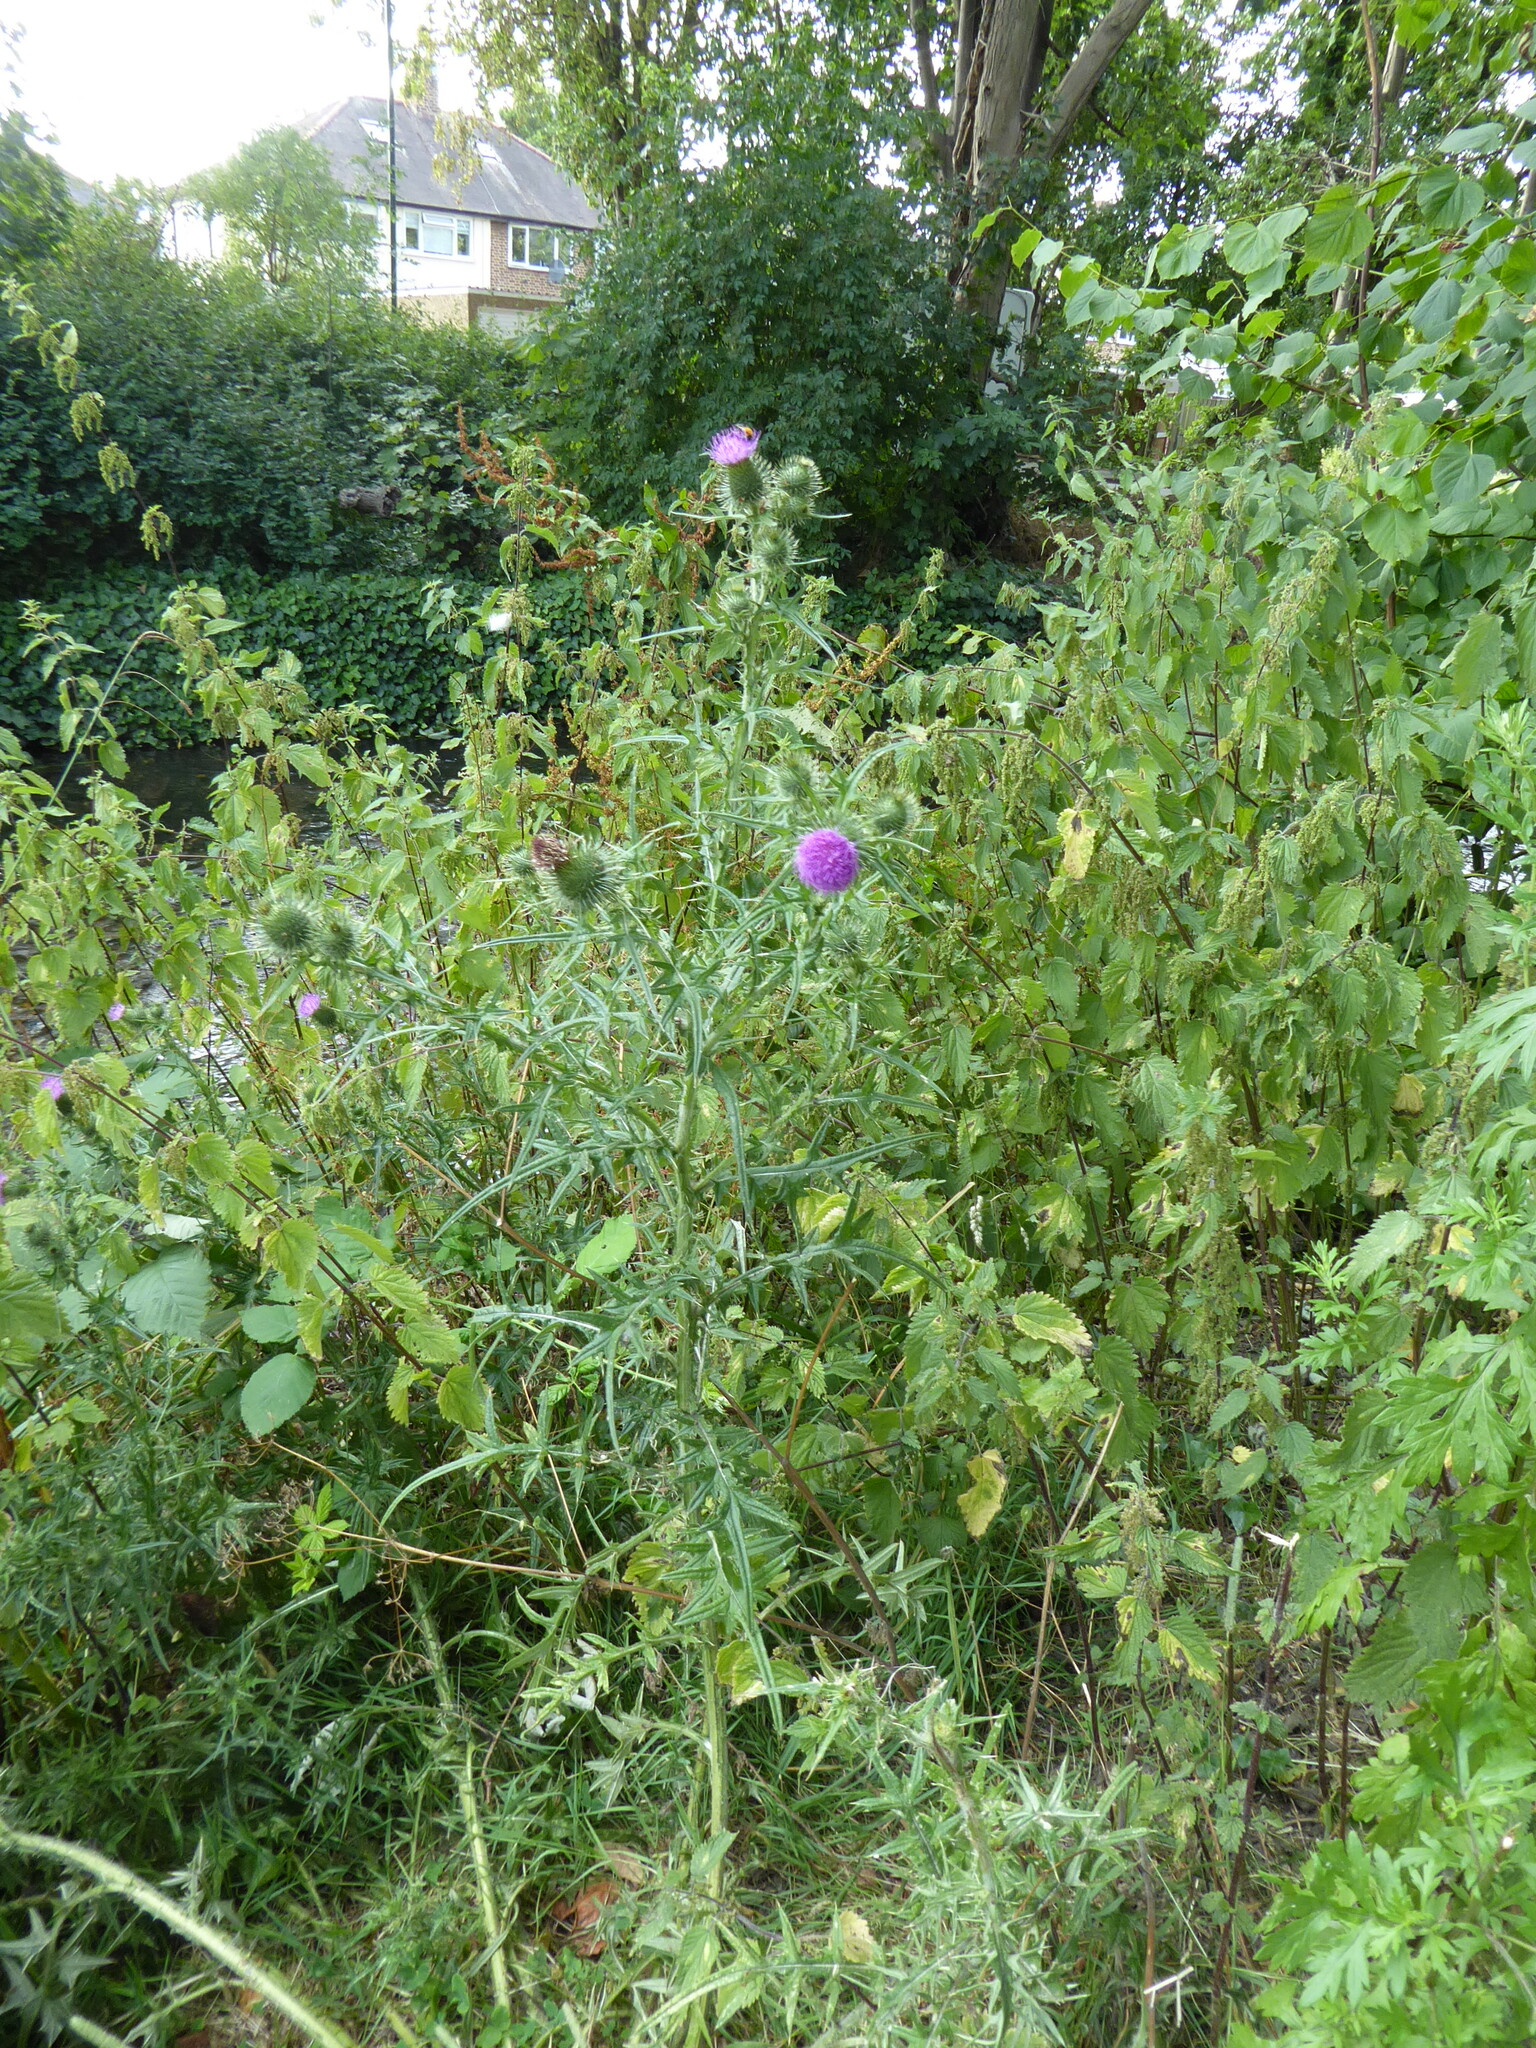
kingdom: Plantae
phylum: Tracheophyta
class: Magnoliopsida
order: Asterales
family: Asteraceae
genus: Cirsium
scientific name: Cirsium vulgare
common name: Bull thistle
